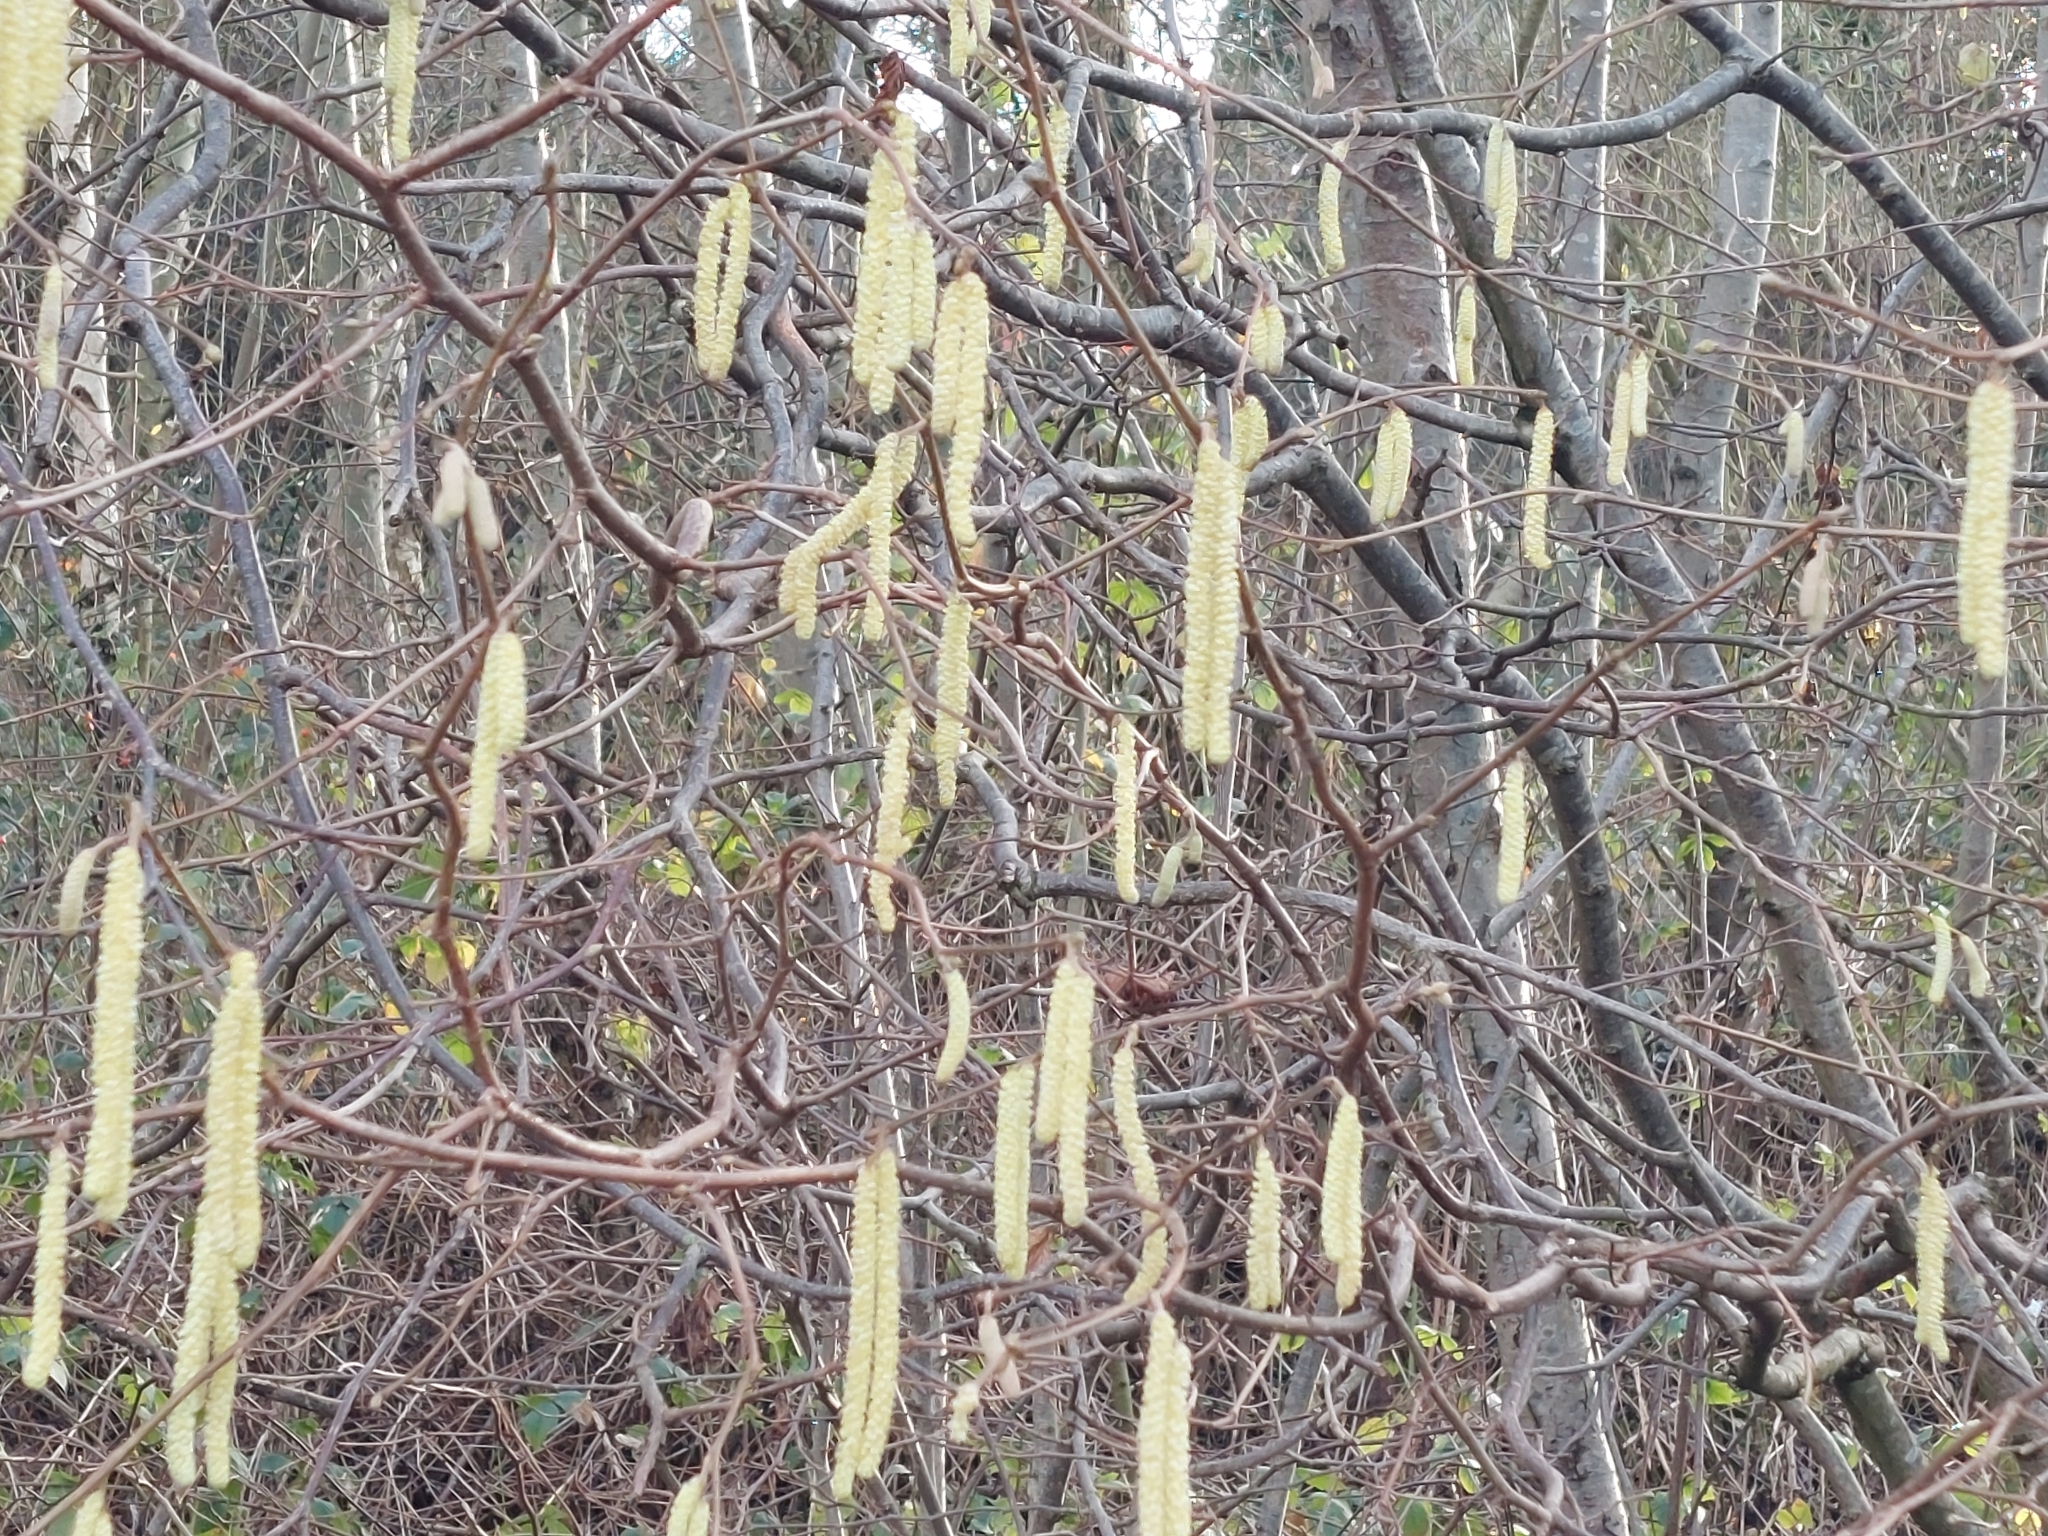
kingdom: Plantae
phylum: Tracheophyta
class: Magnoliopsida
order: Fagales
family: Betulaceae
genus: Corylus
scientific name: Corylus avellana
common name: European hazel
